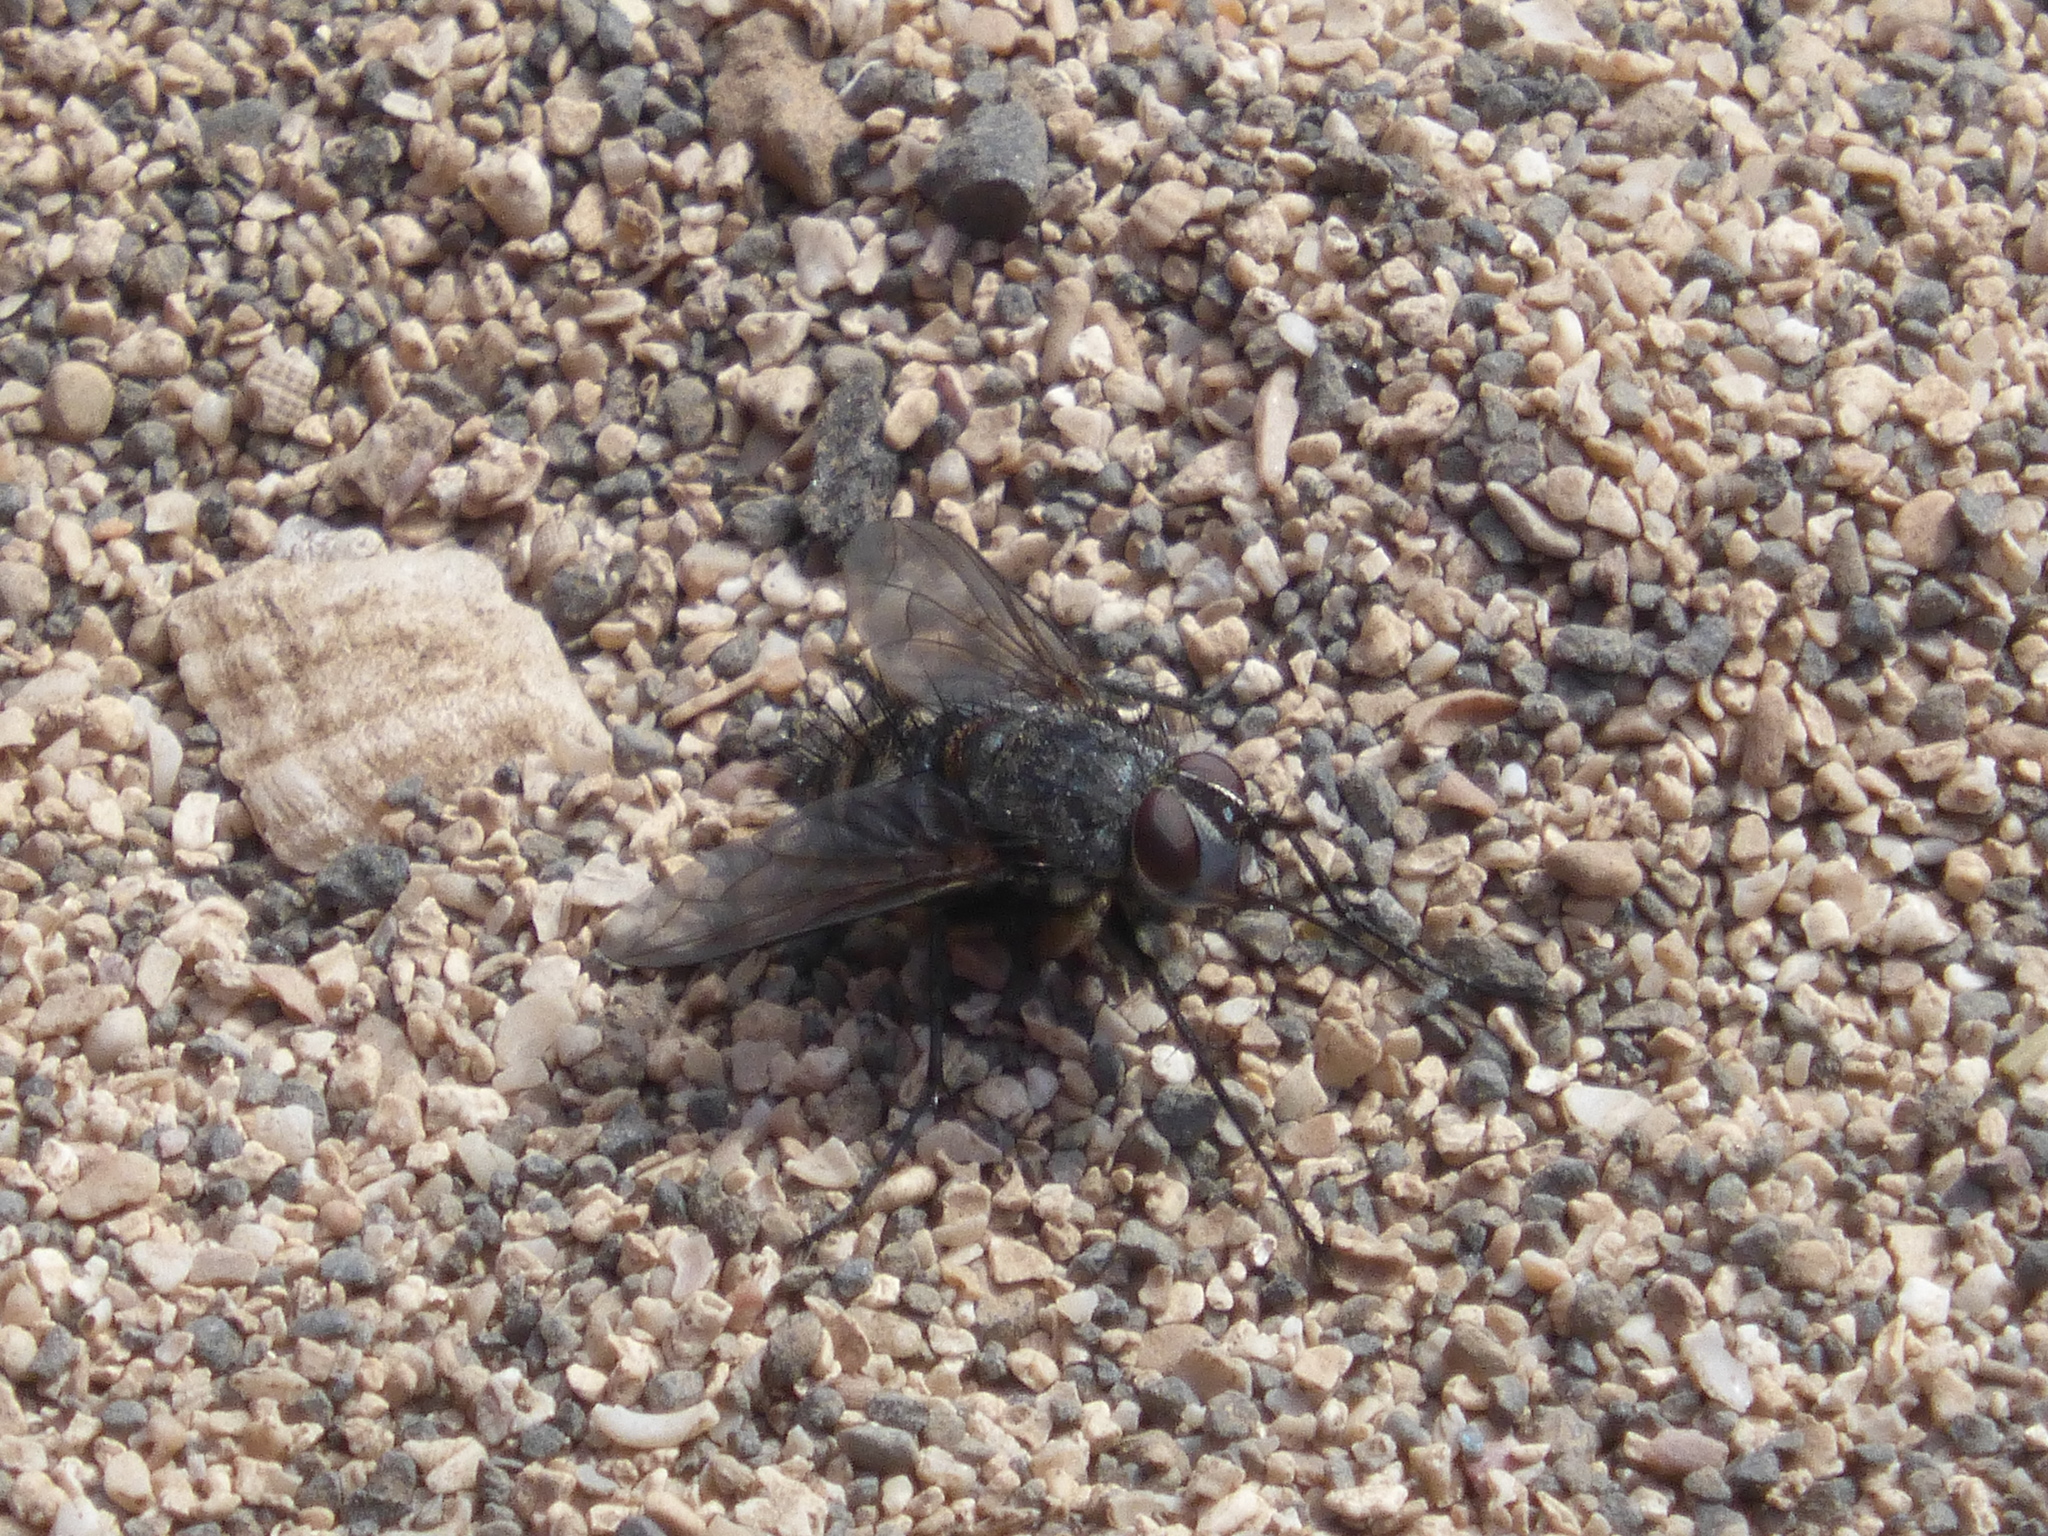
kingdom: Animalia
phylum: Arthropoda
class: Insecta
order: Diptera
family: Tachinidae
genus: Estheria
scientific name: Estheria simonyi
